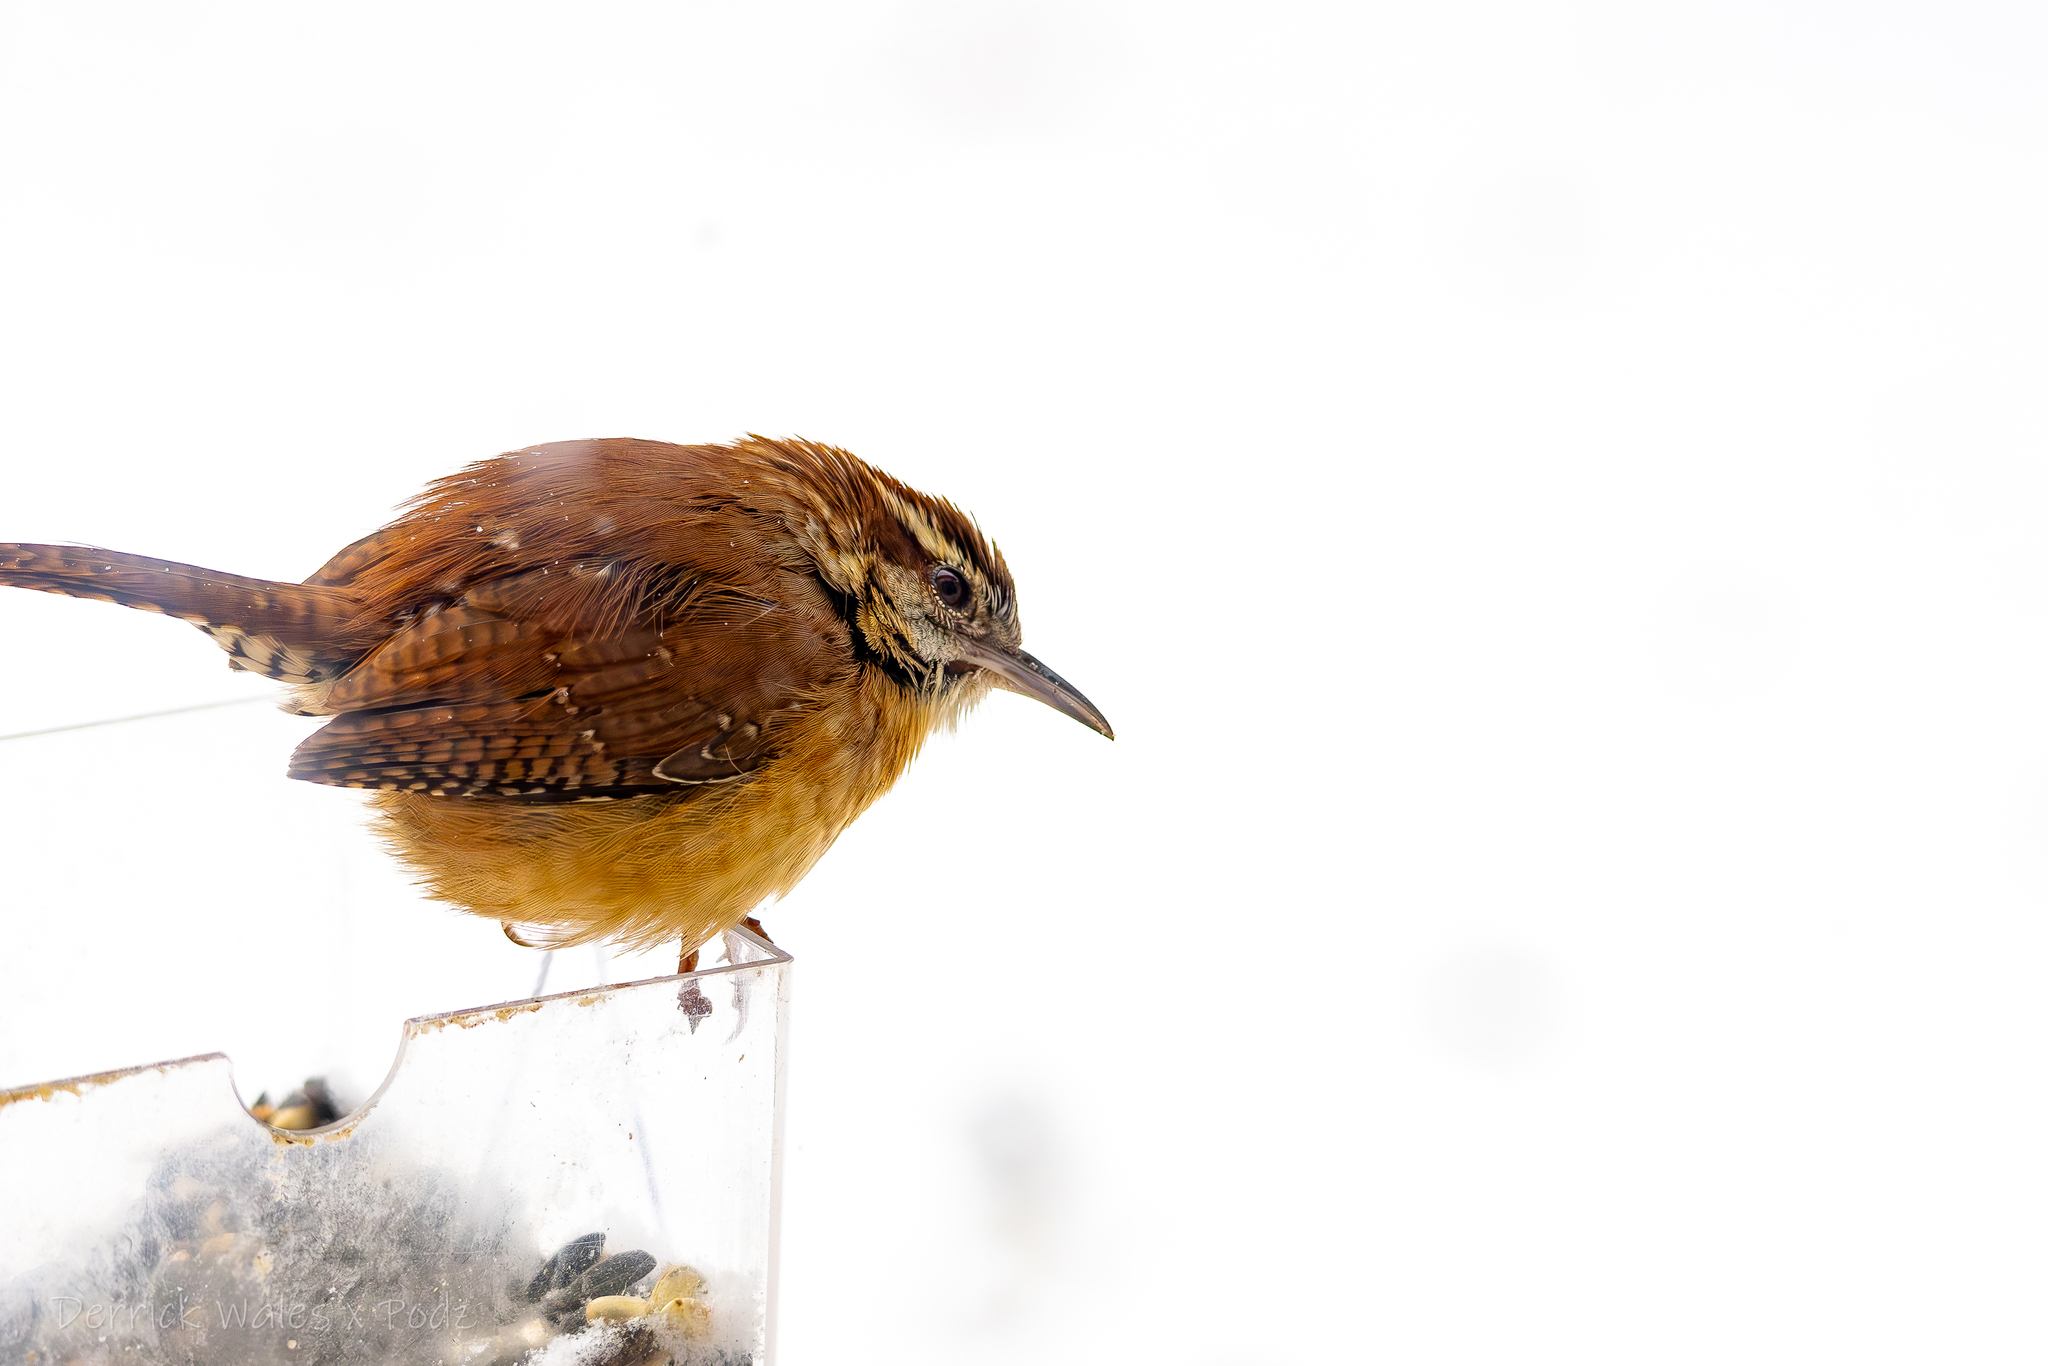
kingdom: Animalia
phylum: Chordata
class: Aves
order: Passeriformes
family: Troglodytidae
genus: Thryothorus
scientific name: Thryothorus ludovicianus
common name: Carolina wren
